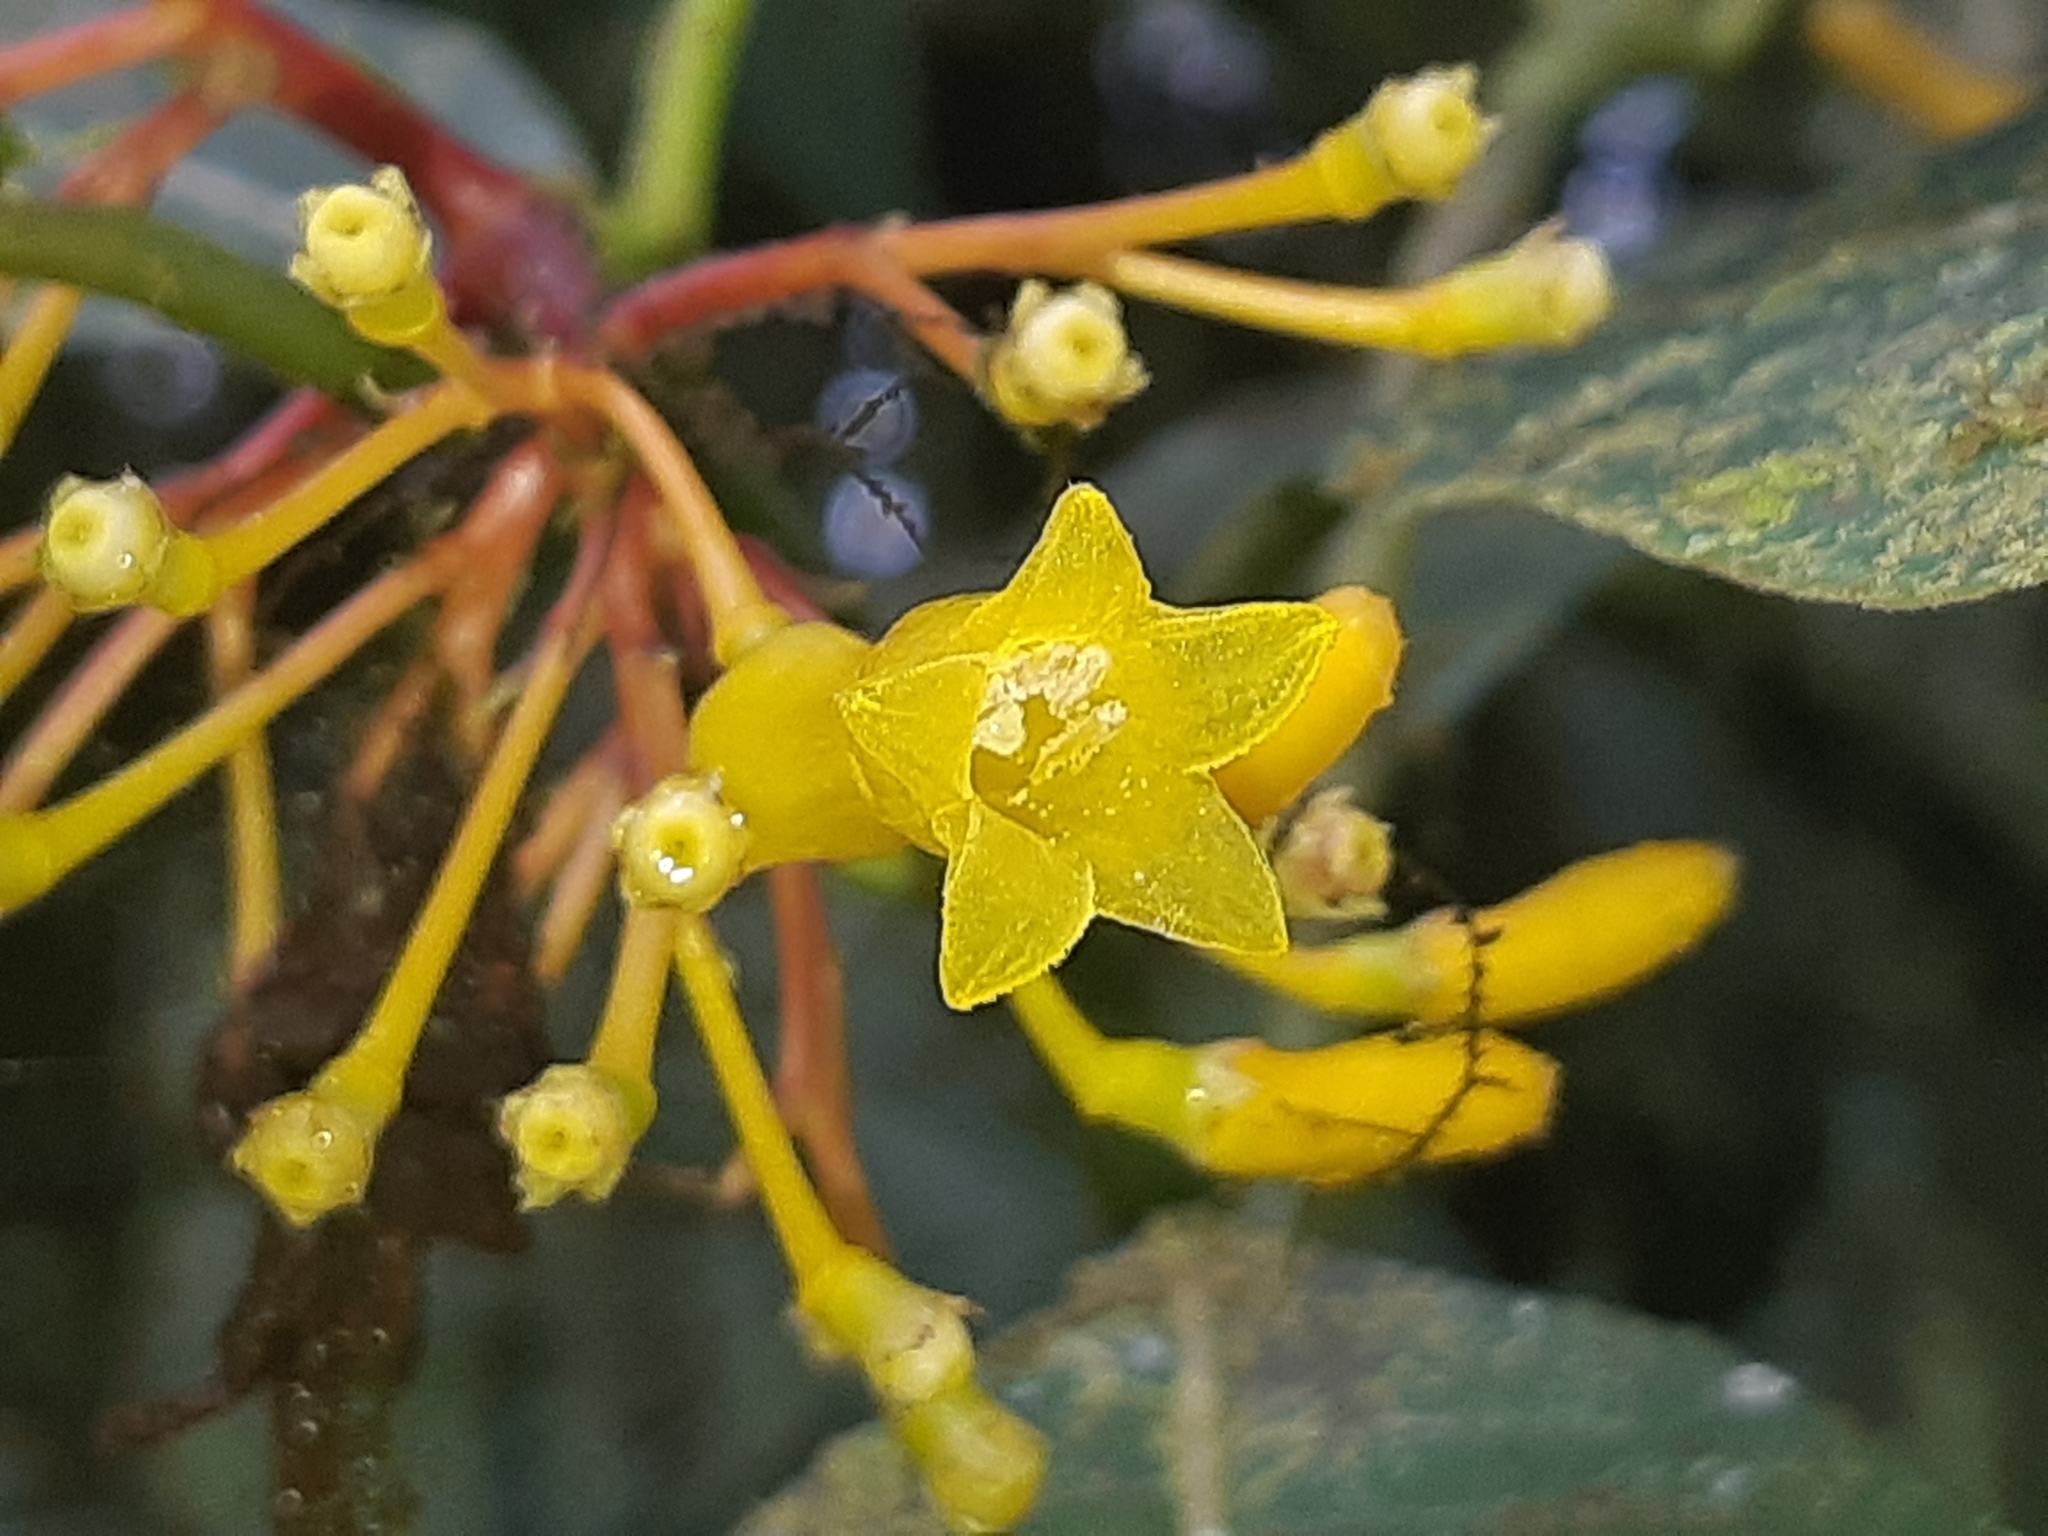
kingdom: Plantae
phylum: Tracheophyta
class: Magnoliopsida
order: Gentianales
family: Rubiaceae
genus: Palicourea
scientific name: Palicourea anderssoniana
